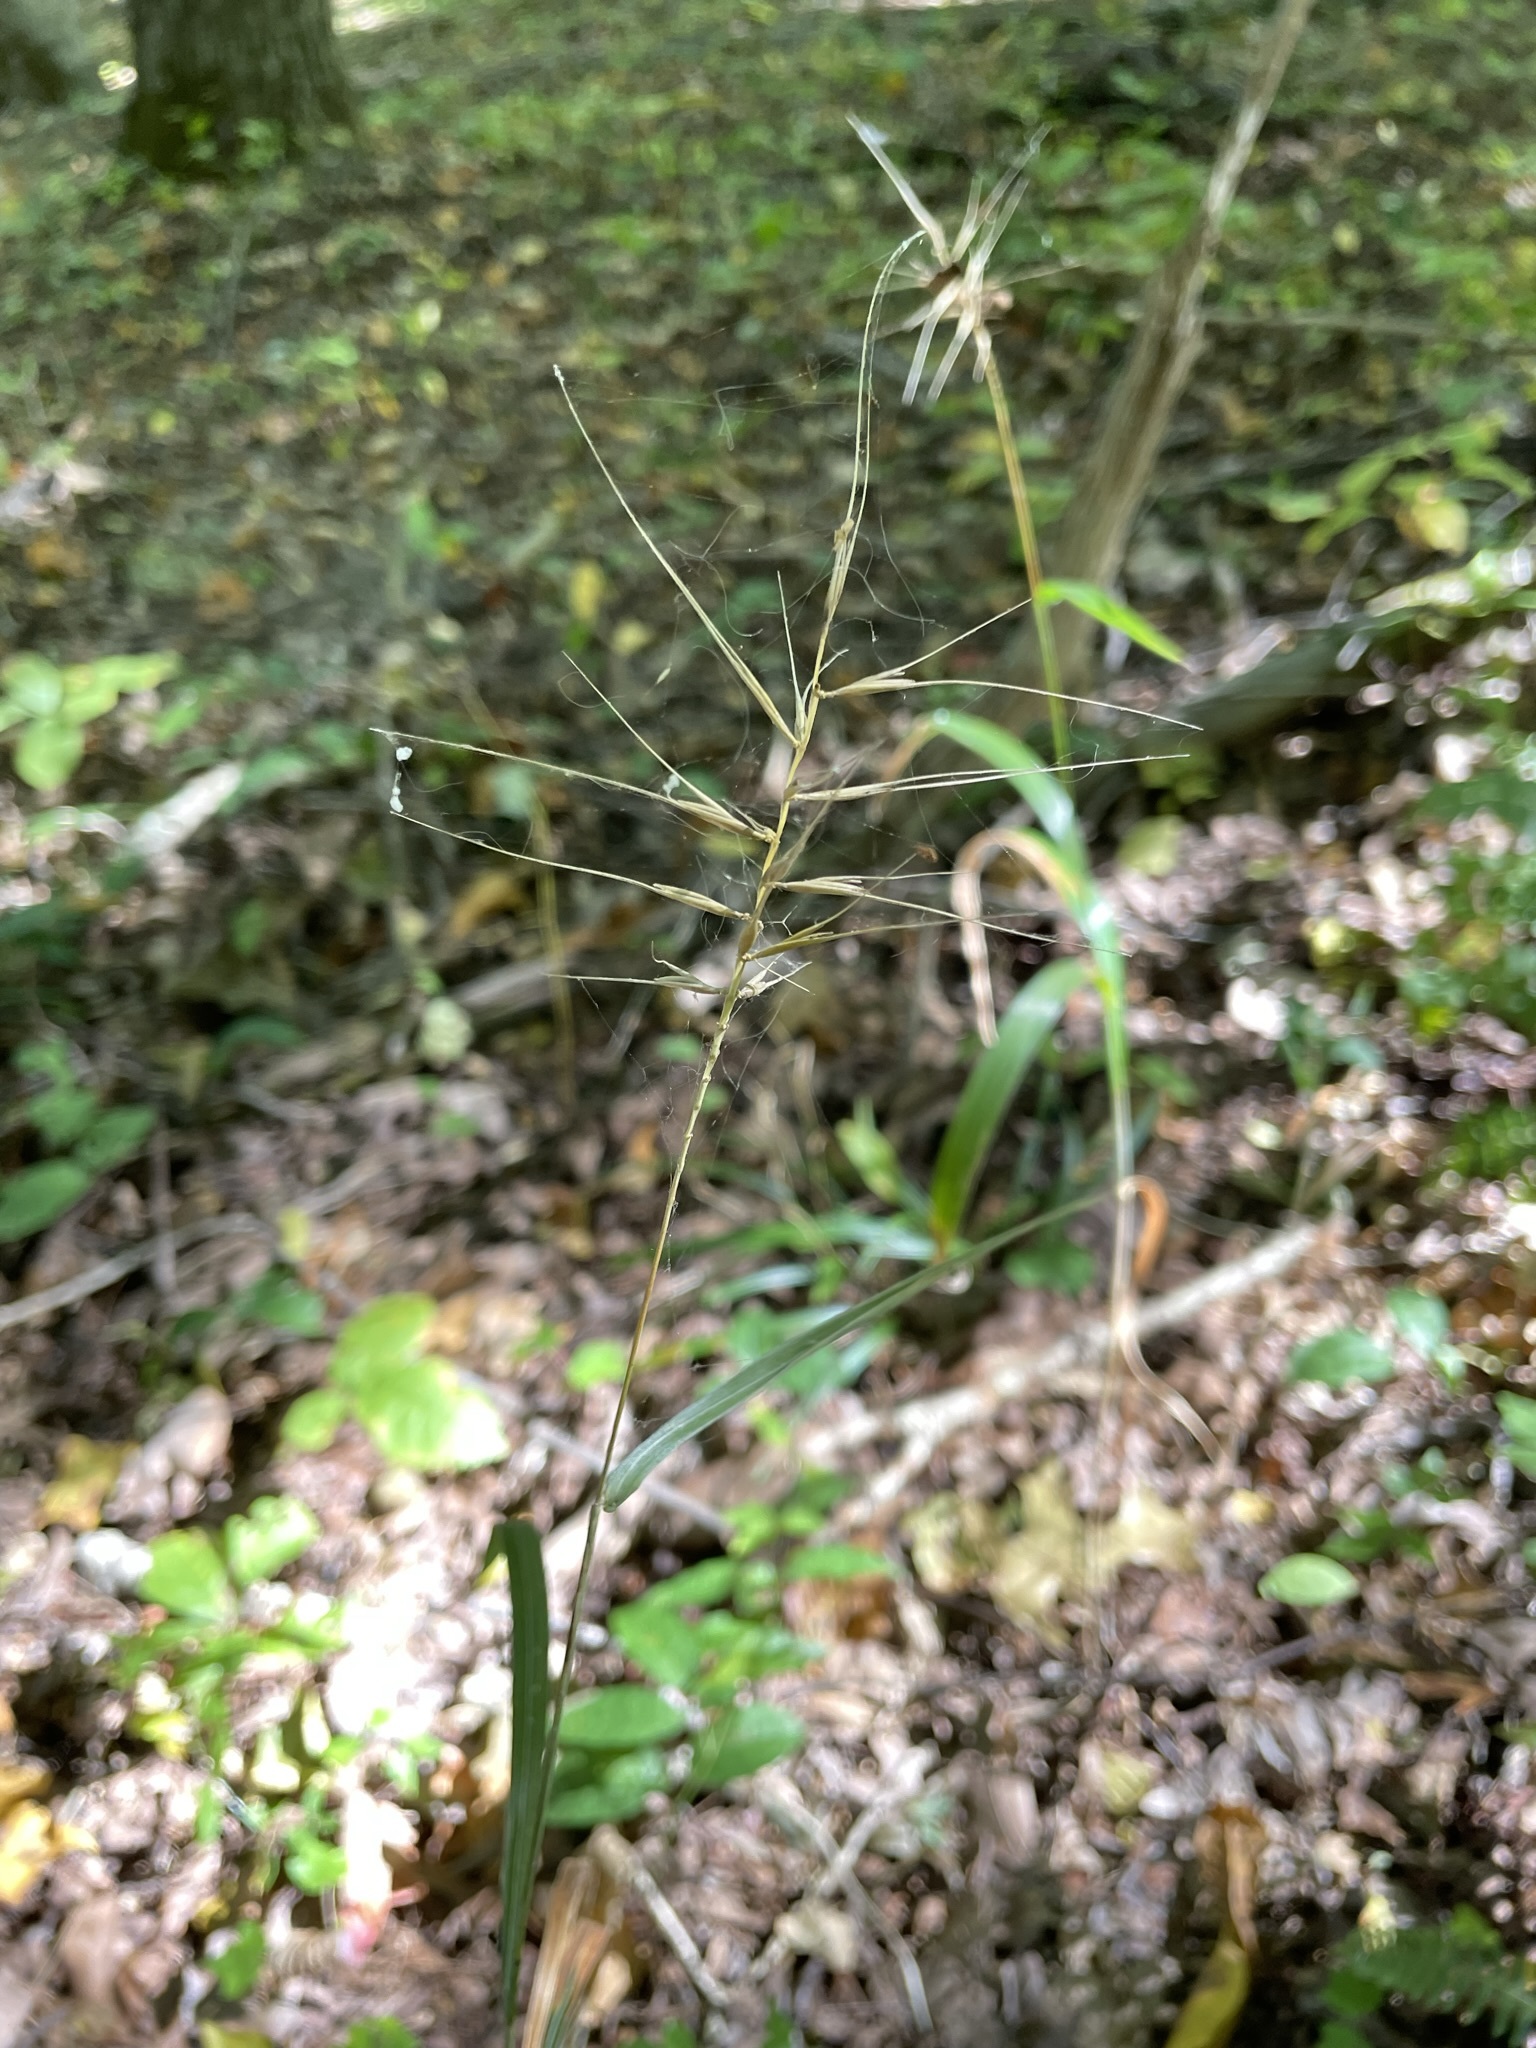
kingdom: Plantae
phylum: Tracheophyta
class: Liliopsida
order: Poales
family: Poaceae
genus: Elymus
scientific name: Elymus hystrix
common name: Bottlebrush grass
